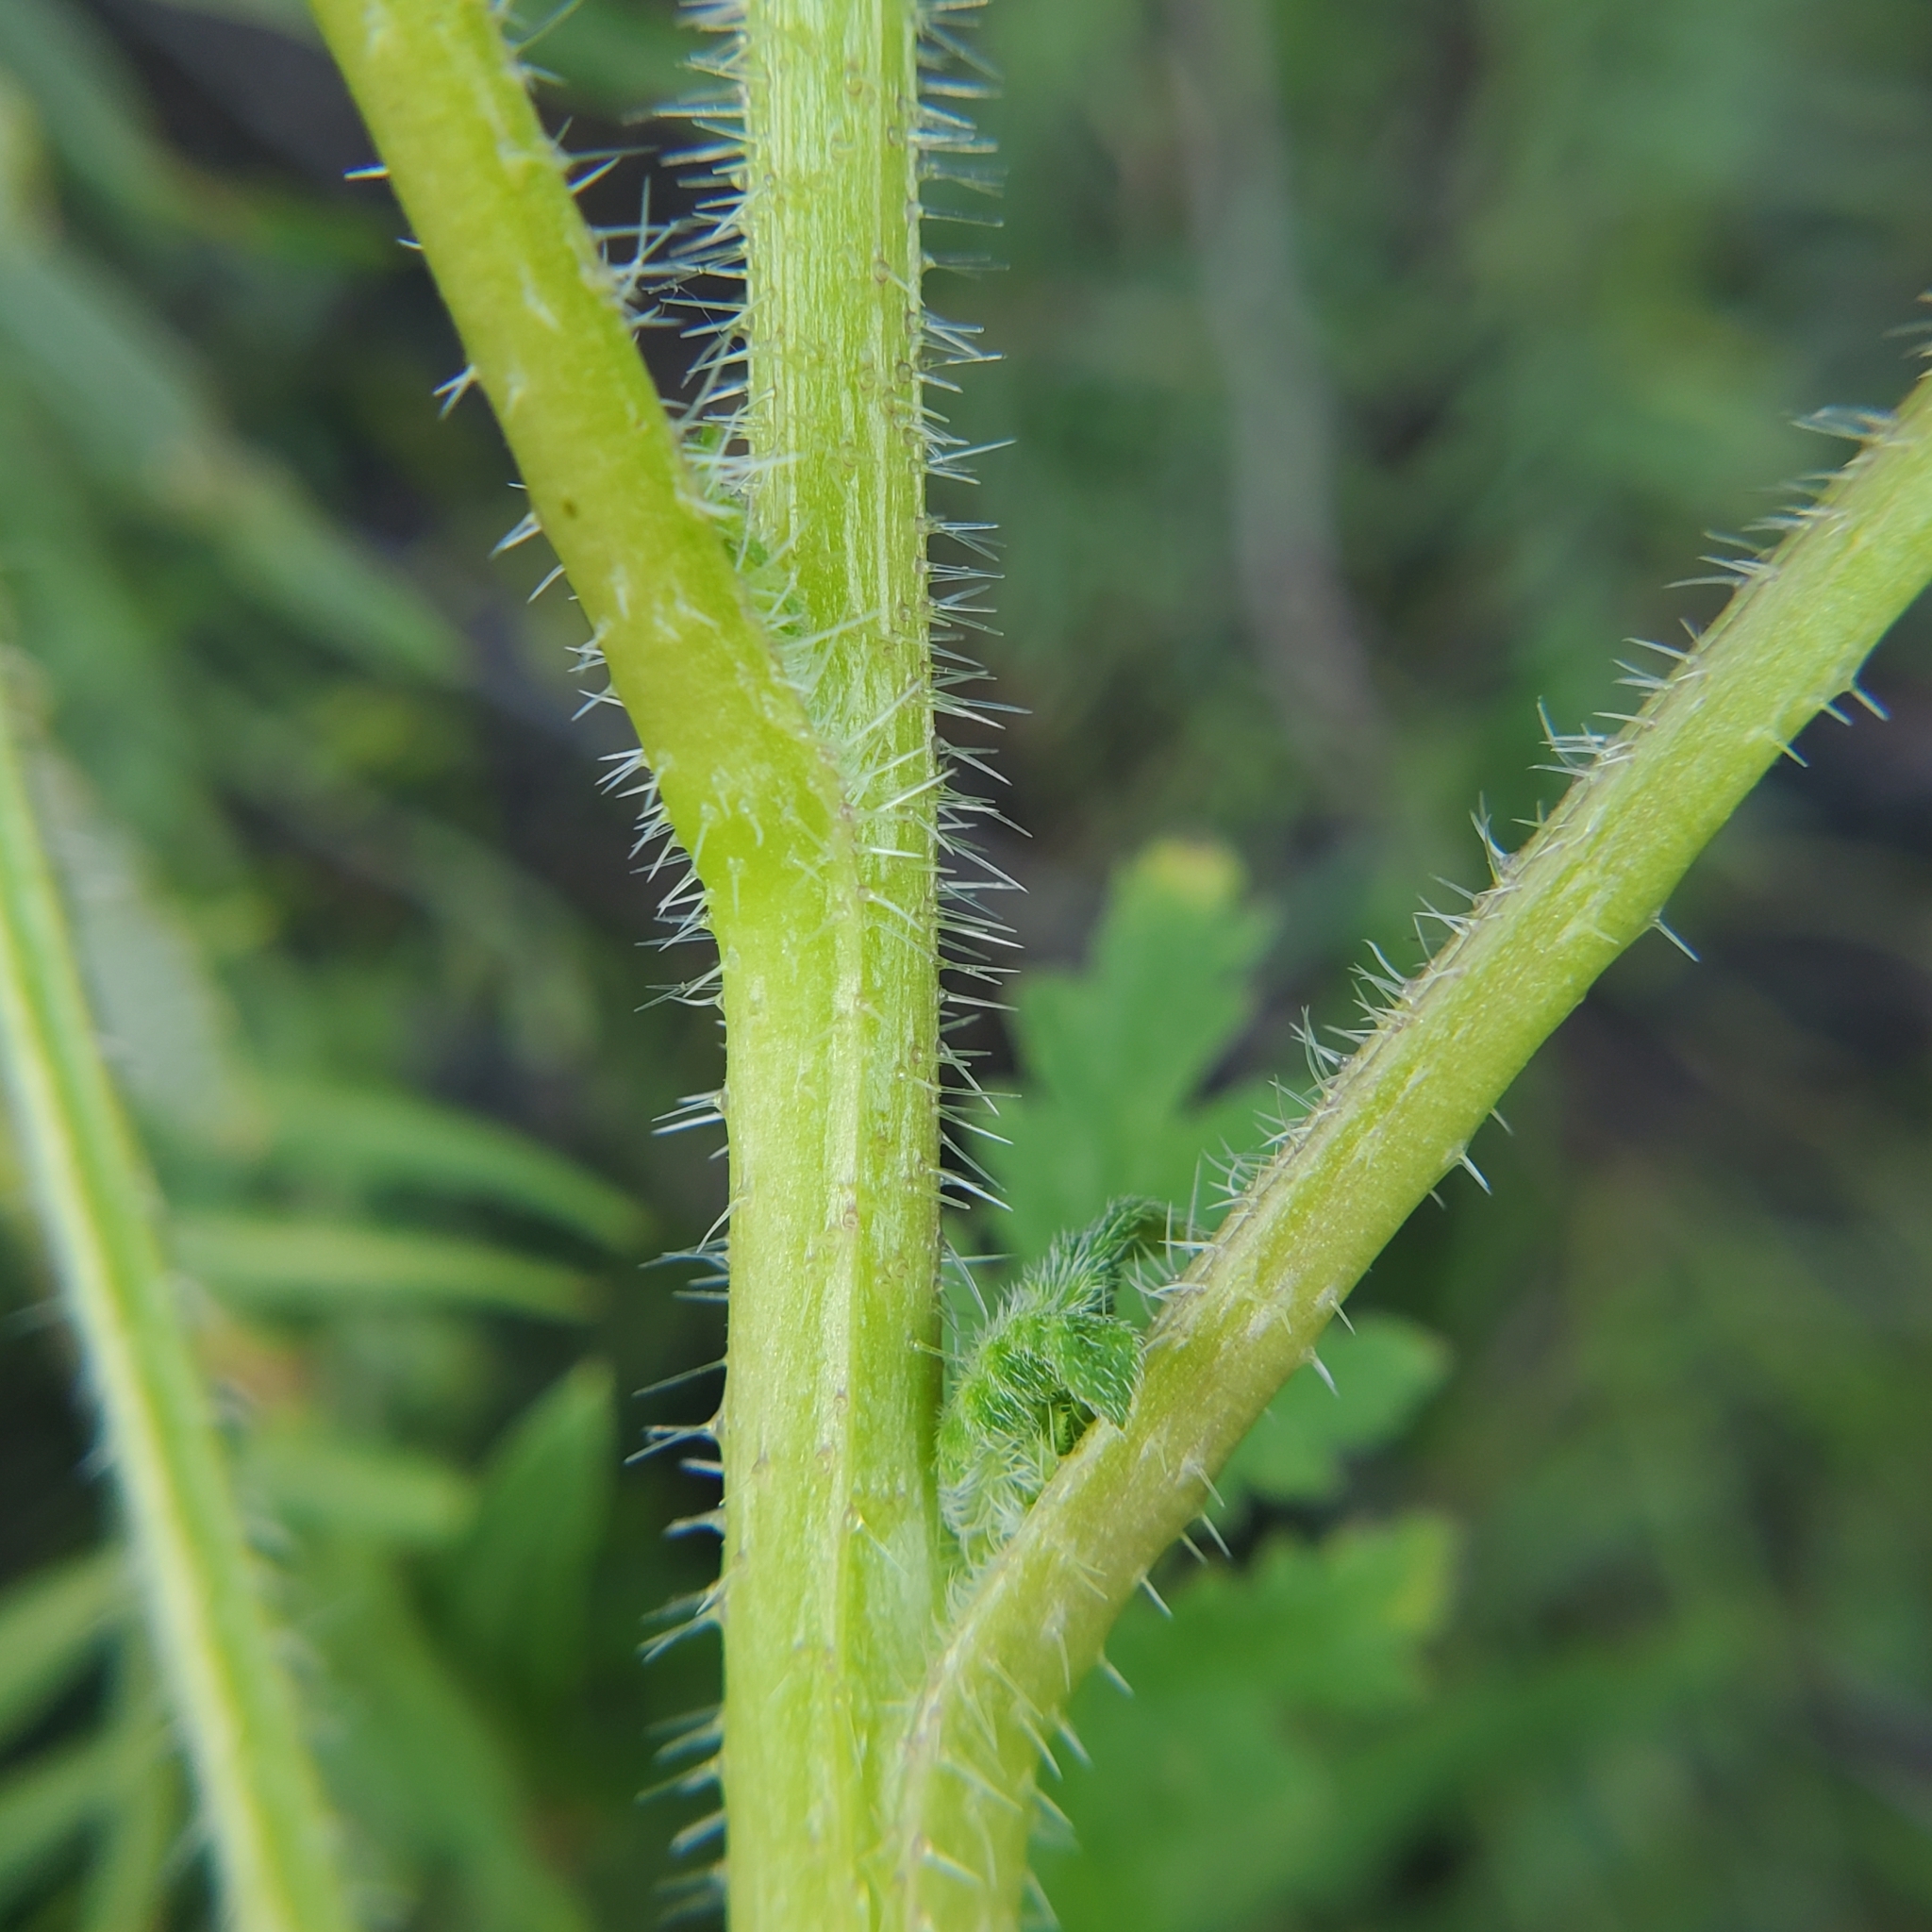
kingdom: Plantae
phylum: Tracheophyta
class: Magnoliopsida
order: Boraginales
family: Hydrophyllaceae
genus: Phacelia
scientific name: Phacelia ramosissima
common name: Branching phacelia
